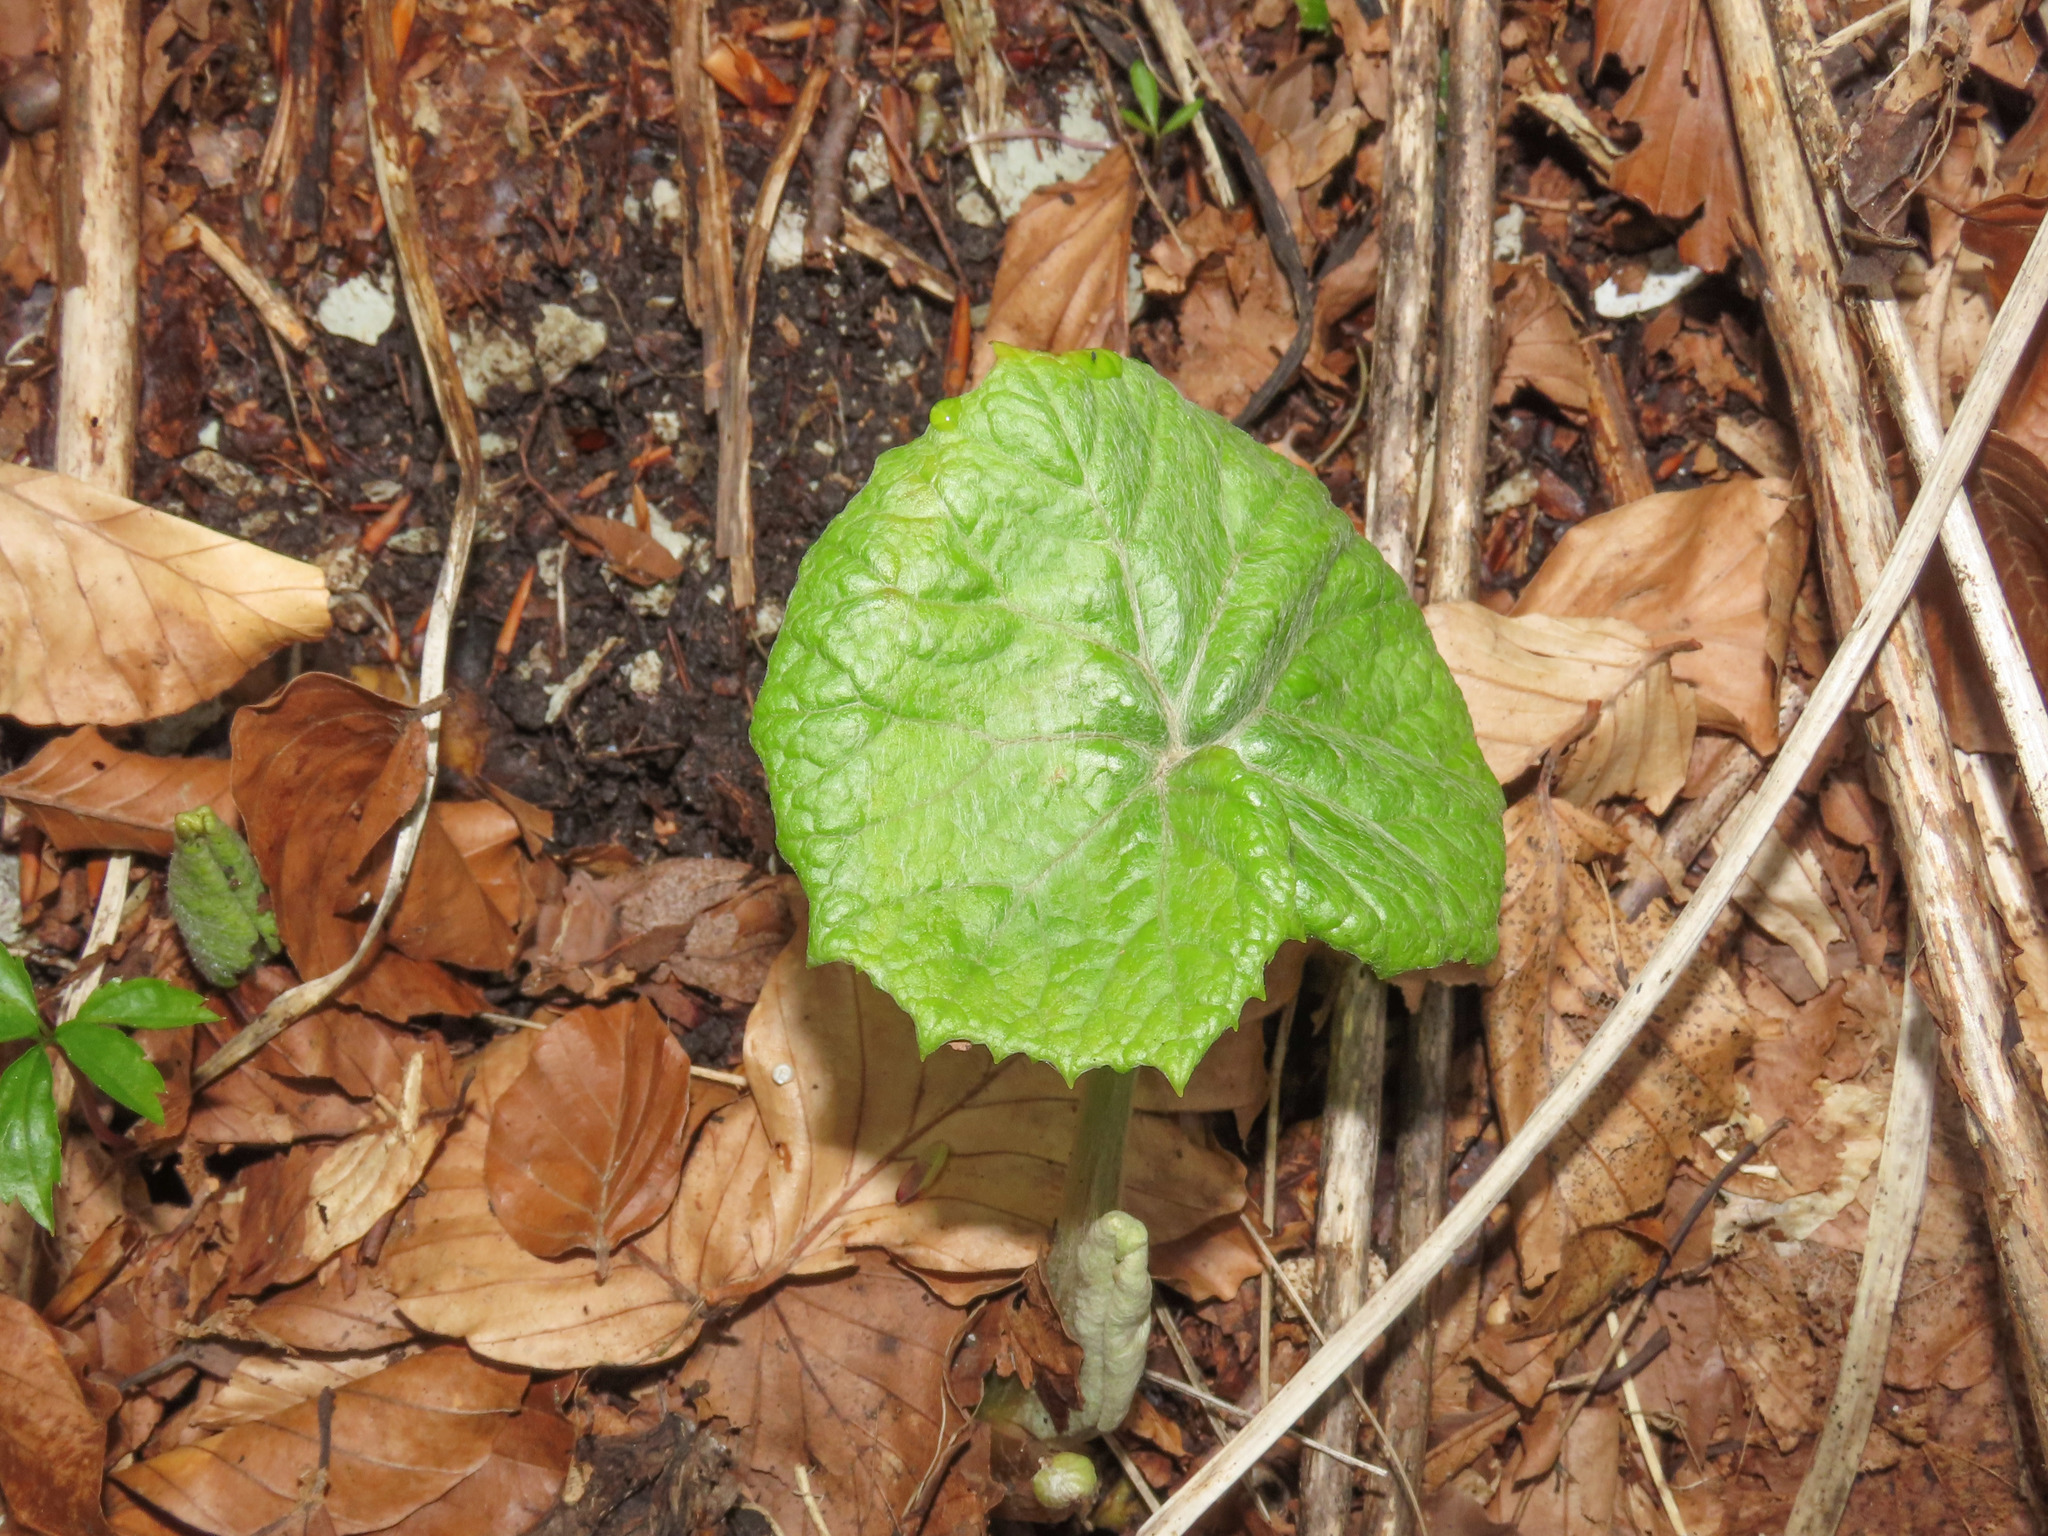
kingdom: Plantae
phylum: Tracheophyta
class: Magnoliopsida
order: Asterales
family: Asteraceae
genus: Petasites
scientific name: Petasites albus
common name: White butterbur
